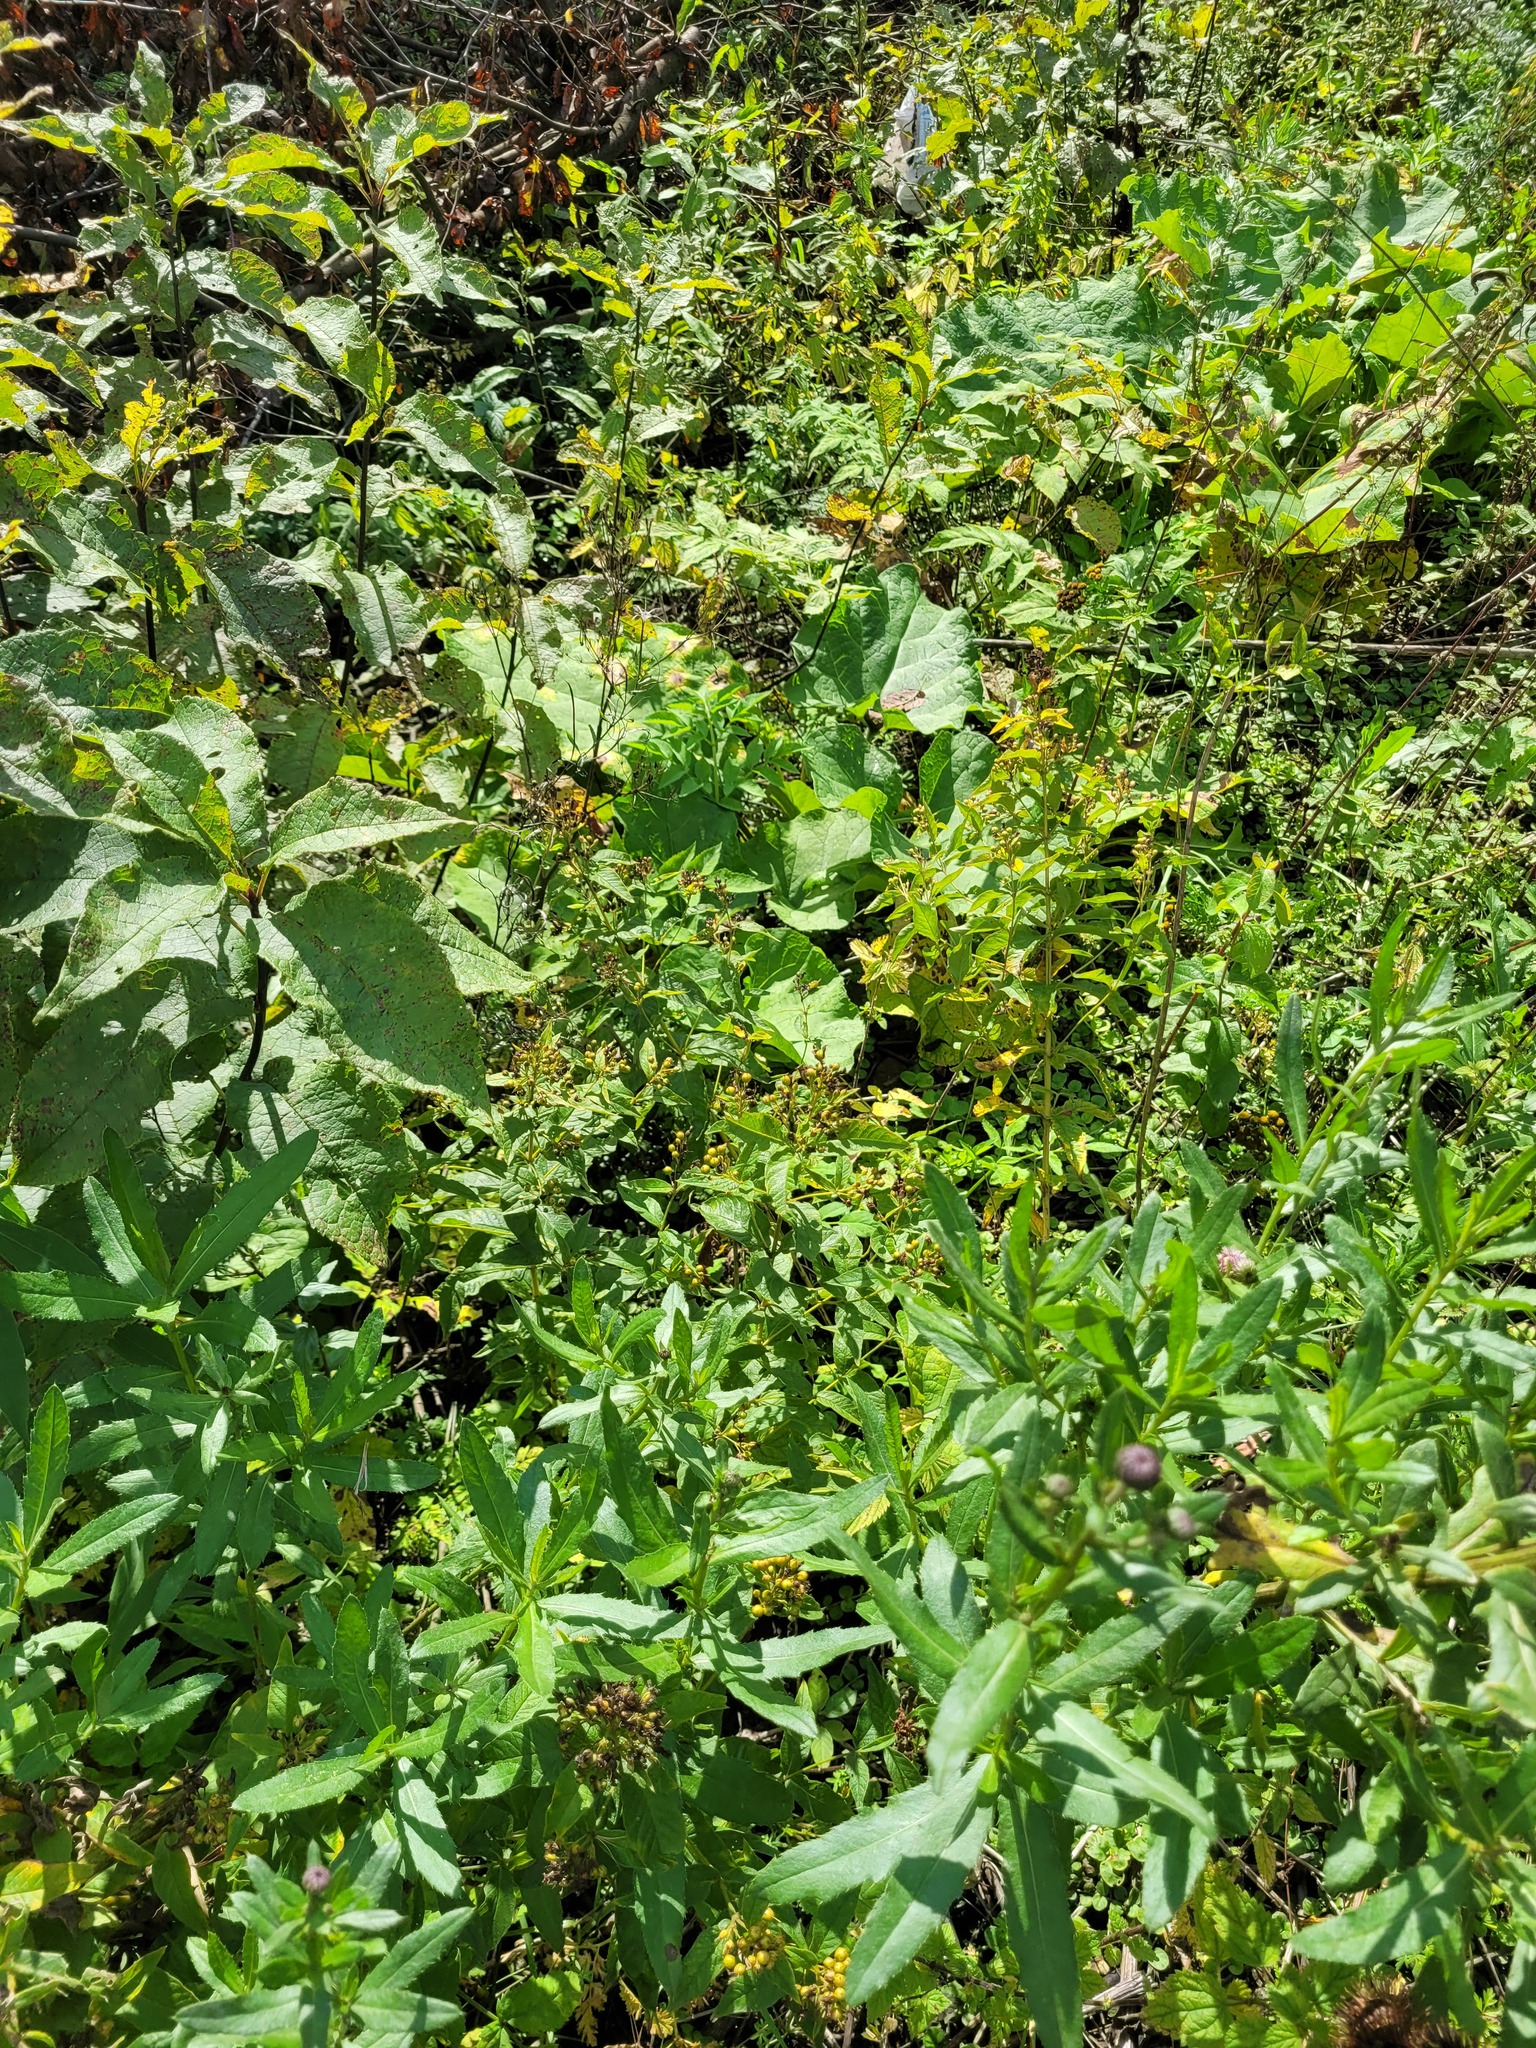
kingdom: Plantae
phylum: Tracheophyta
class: Magnoliopsida
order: Asterales
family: Asteraceae
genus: Cirsium
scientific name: Cirsium arvense
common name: Creeping thistle
